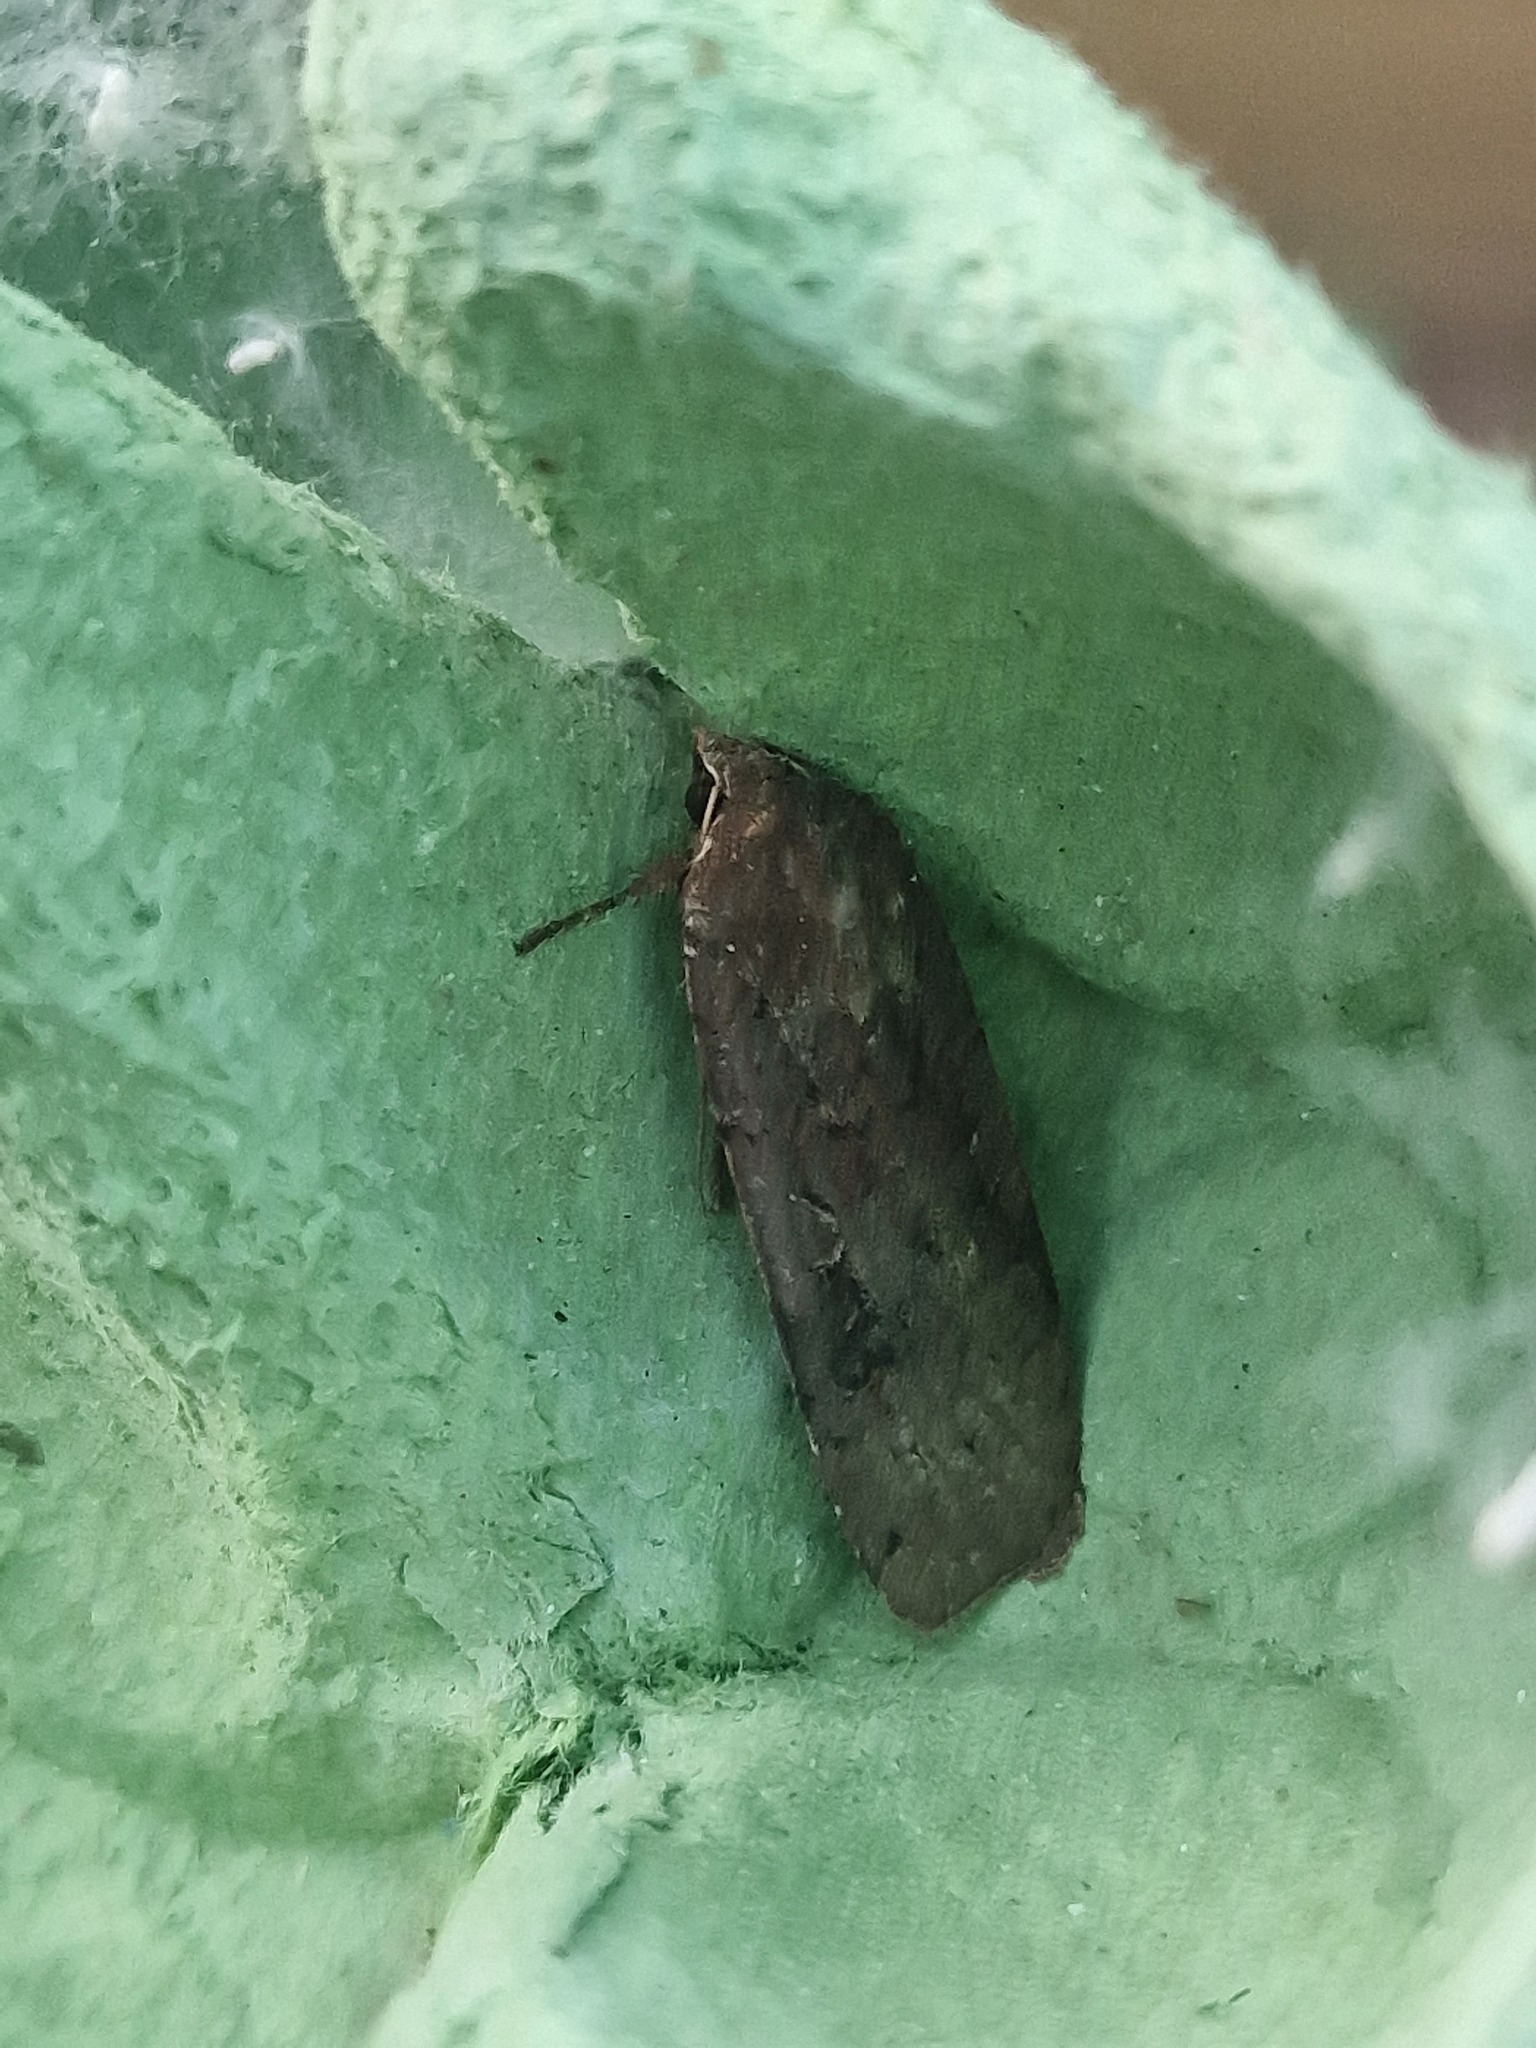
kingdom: Animalia
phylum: Arthropoda
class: Insecta
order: Lepidoptera
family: Noctuidae
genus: Noctua
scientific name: Noctua pronuba
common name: Large yellow underwing
